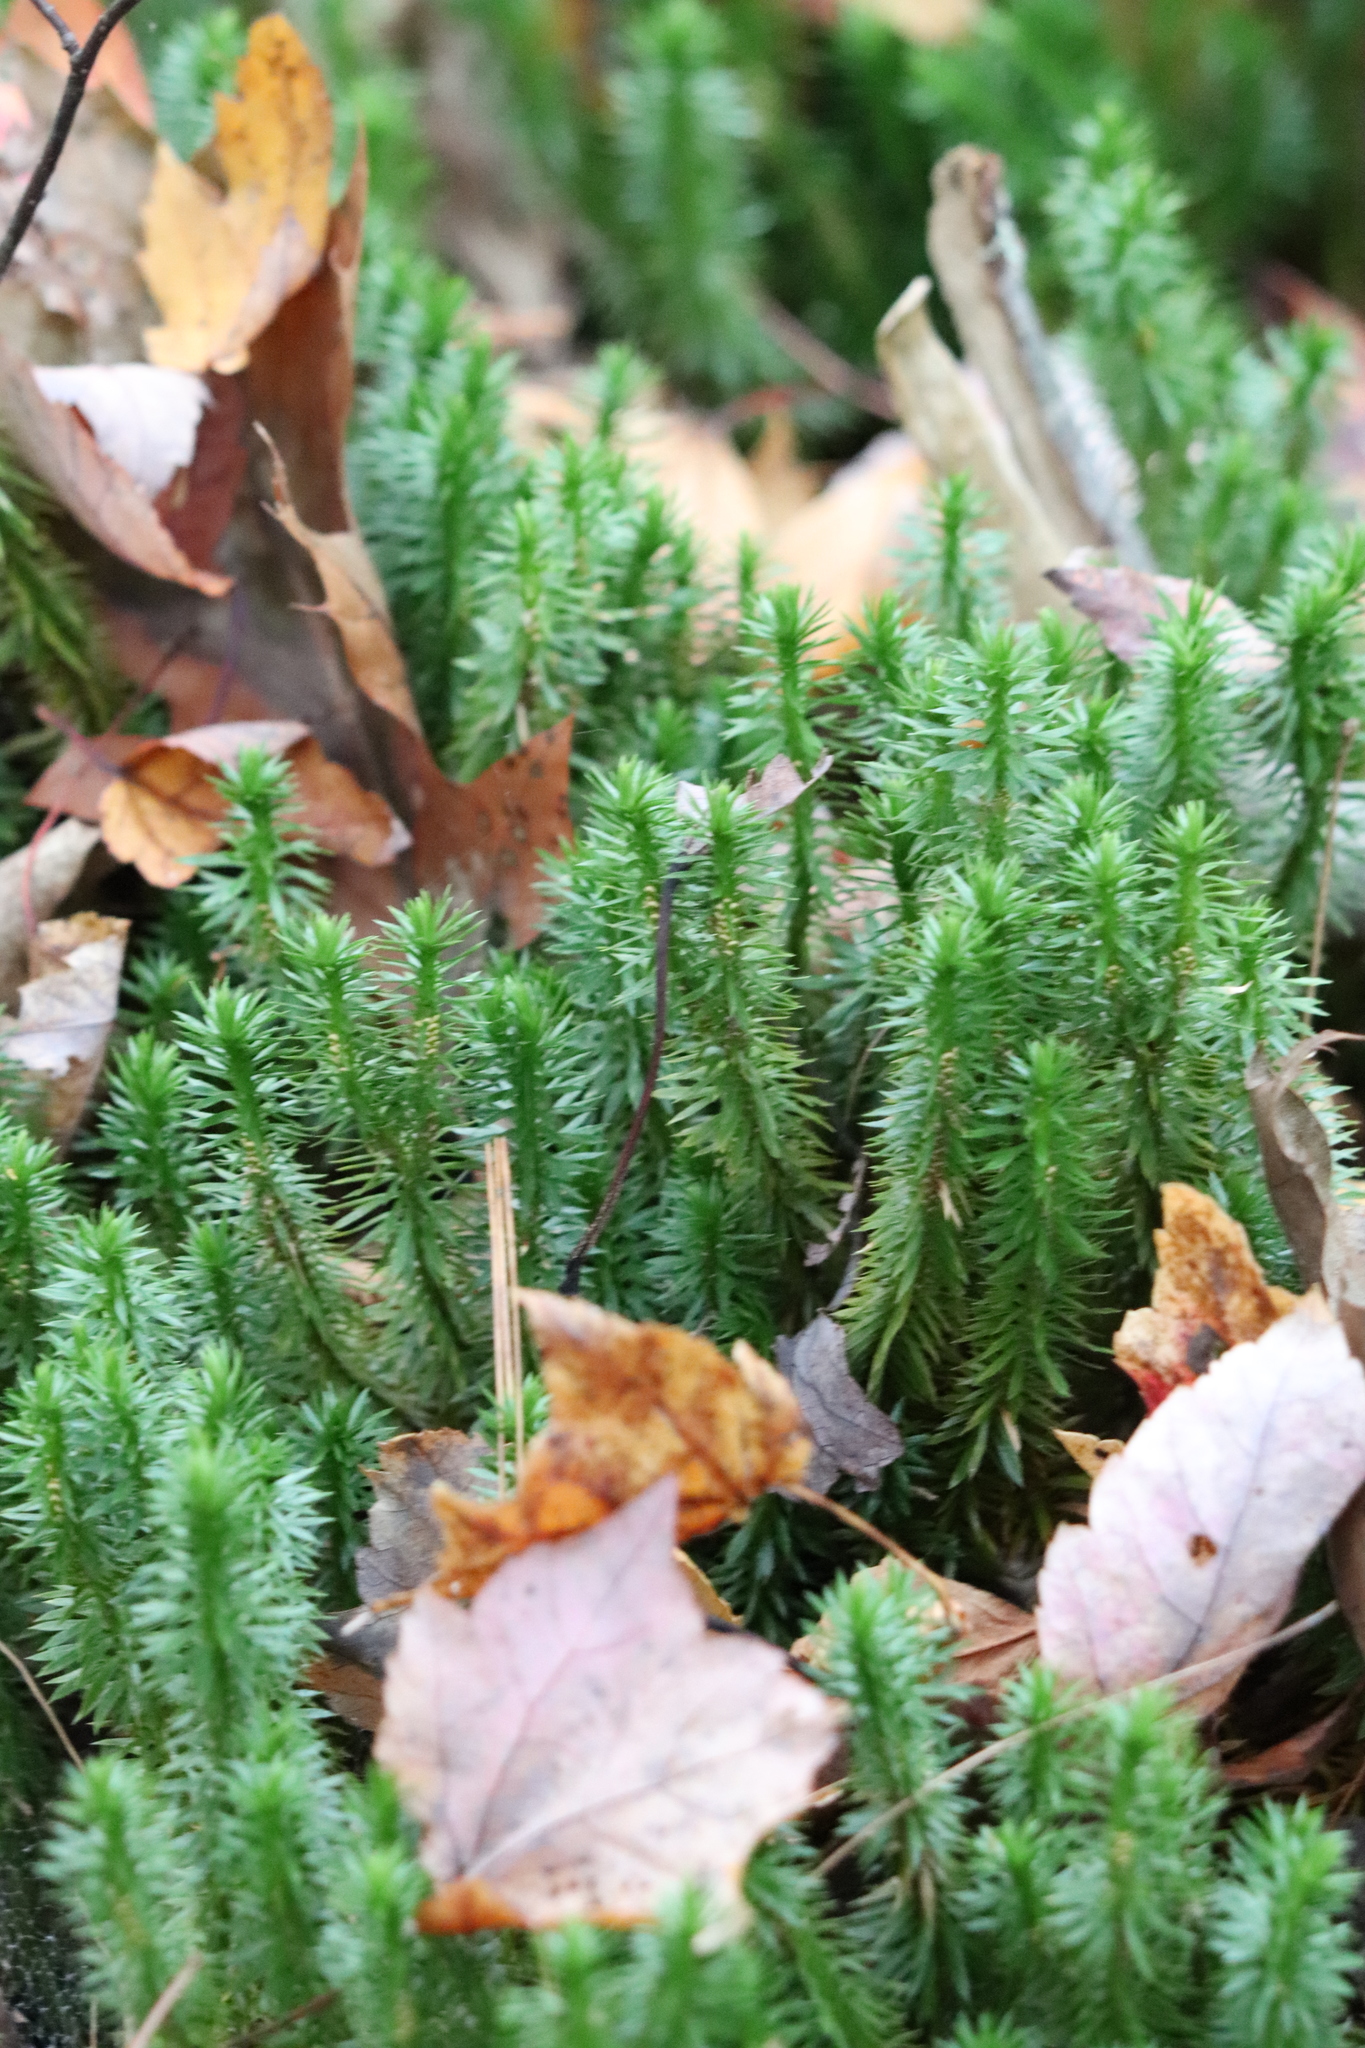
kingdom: Plantae
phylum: Tracheophyta
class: Lycopodiopsida
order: Lycopodiales
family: Lycopodiaceae
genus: Huperzia
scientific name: Huperzia lucidula
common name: Shining clubmoss
